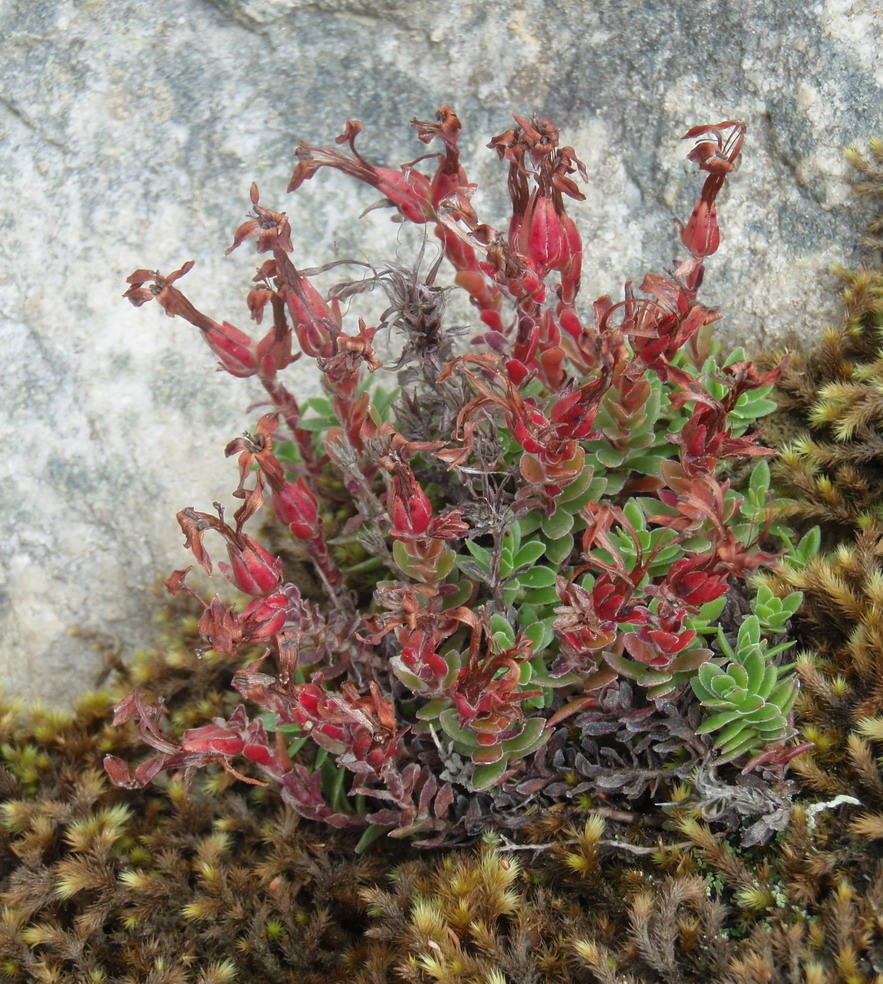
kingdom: Plantae
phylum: Tracheophyta
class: Magnoliopsida
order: Saxifragales
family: Crassulaceae
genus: Crassula
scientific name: Crassula obtusa
